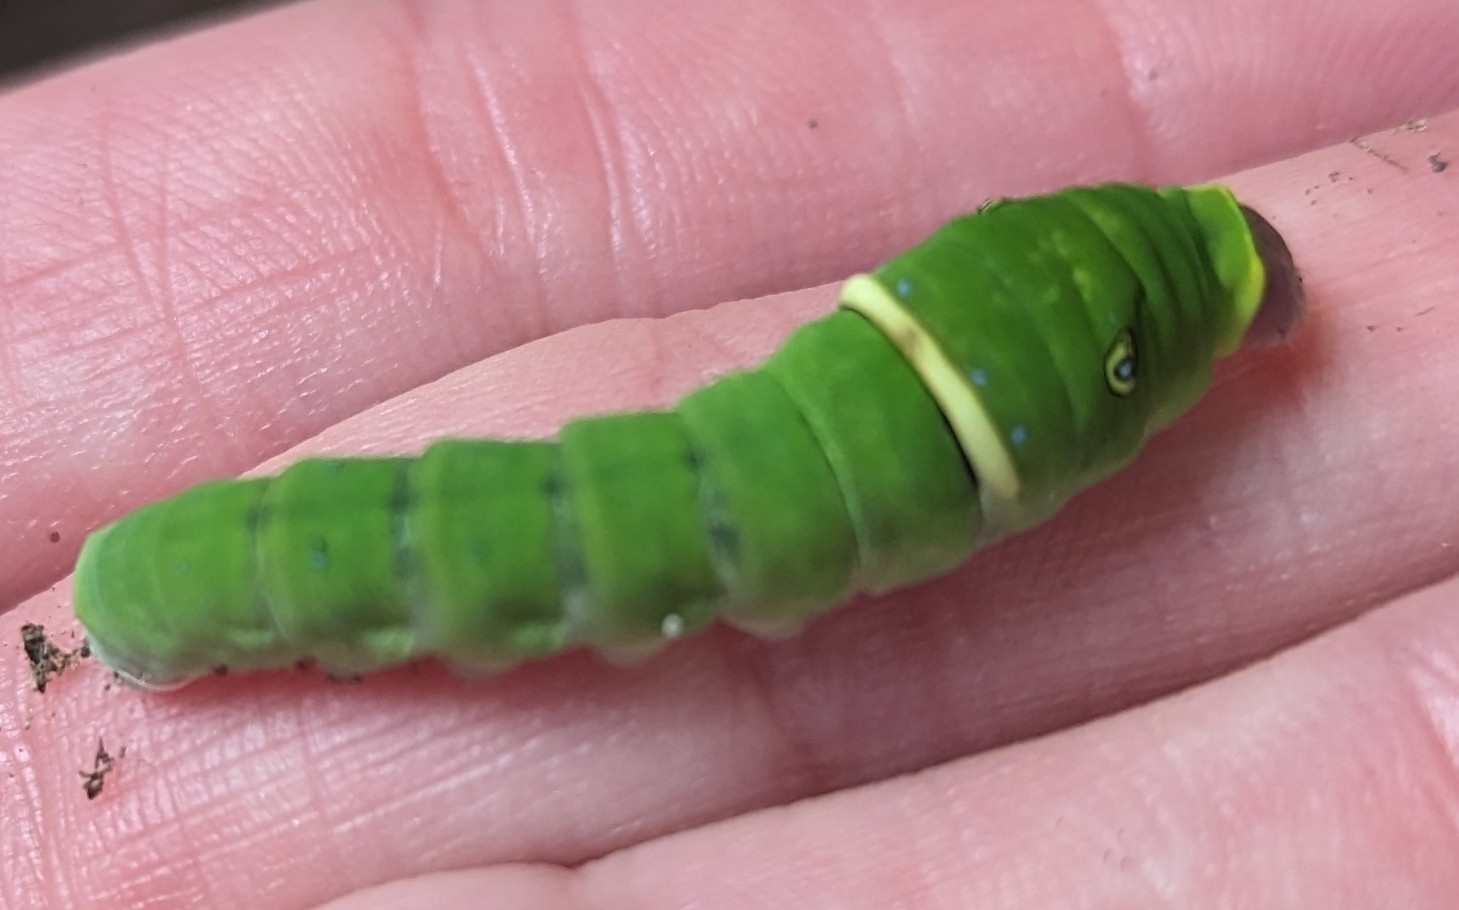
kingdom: Animalia
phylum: Arthropoda
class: Insecta
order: Lepidoptera
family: Papilionidae
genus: Papilio
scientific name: Papilio glaucus
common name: Tiger swallowtail
